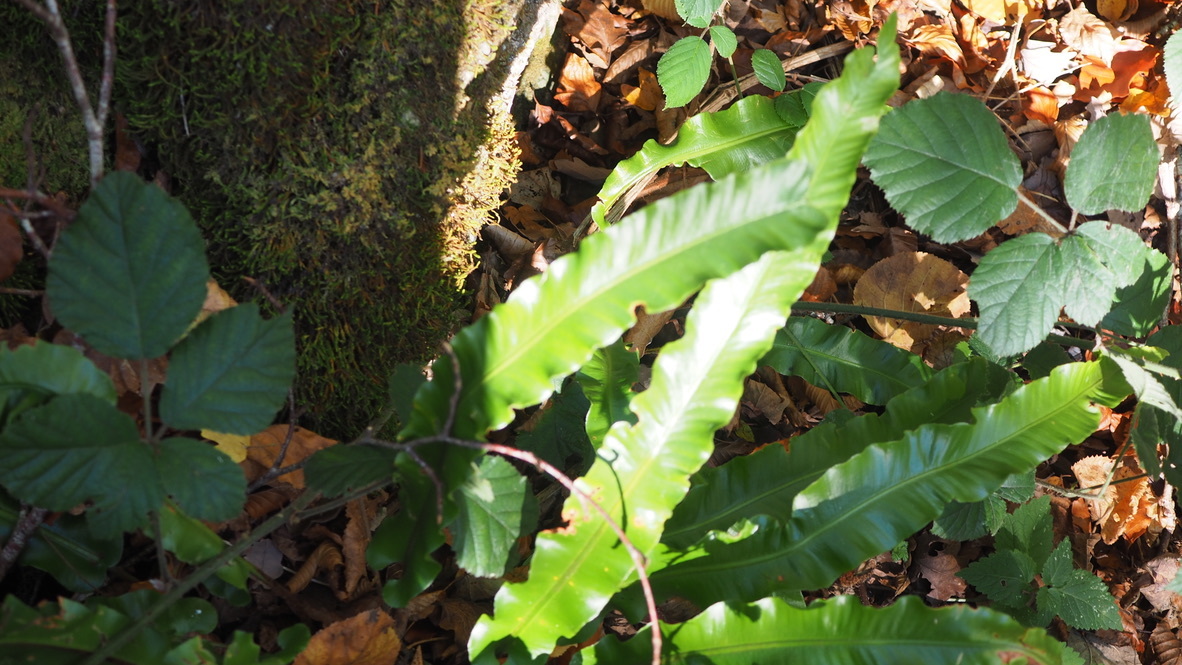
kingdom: Plantae
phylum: Tracheophyta
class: Polypodiopsida
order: Polypodiales
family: Aspleniaceae
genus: Asplenium
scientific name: Asplenium scolopendrium
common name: Hart's-tongue fern
